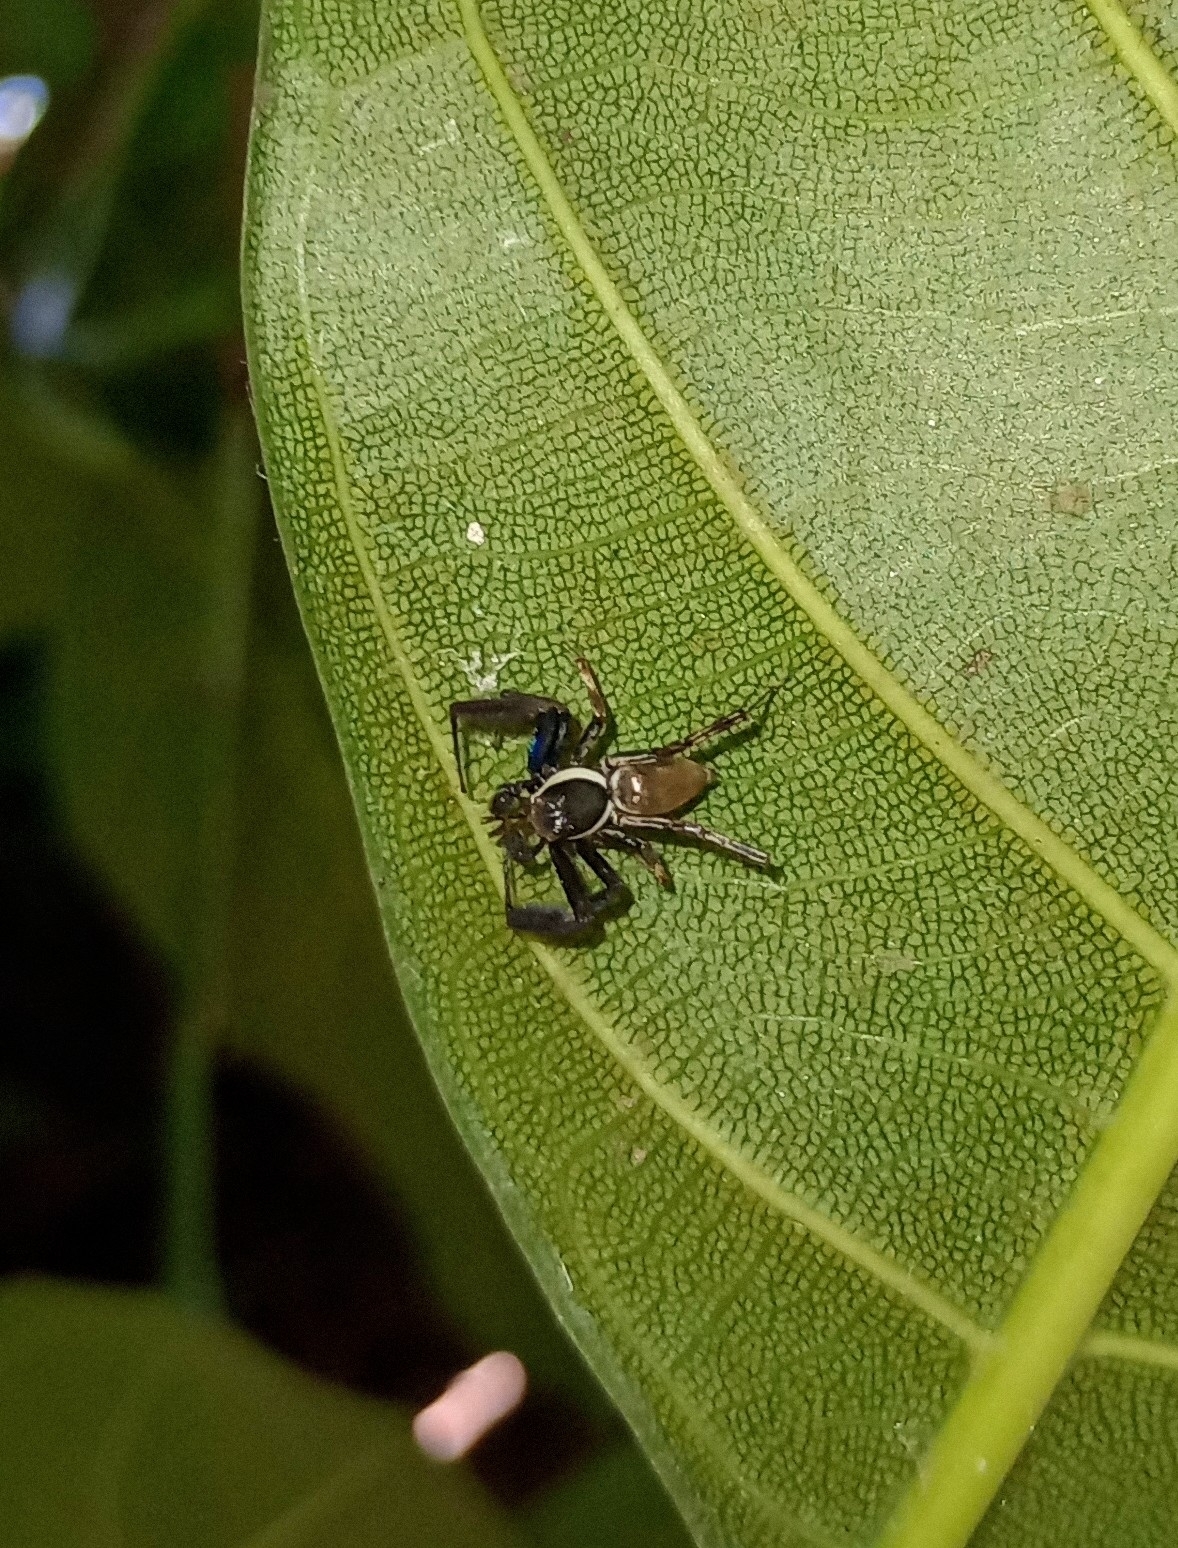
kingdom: Animalia
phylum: Arthropoda
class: Arachnida
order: Araneae
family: Salticidae
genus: Brettus
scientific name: Brettus cingulatus
